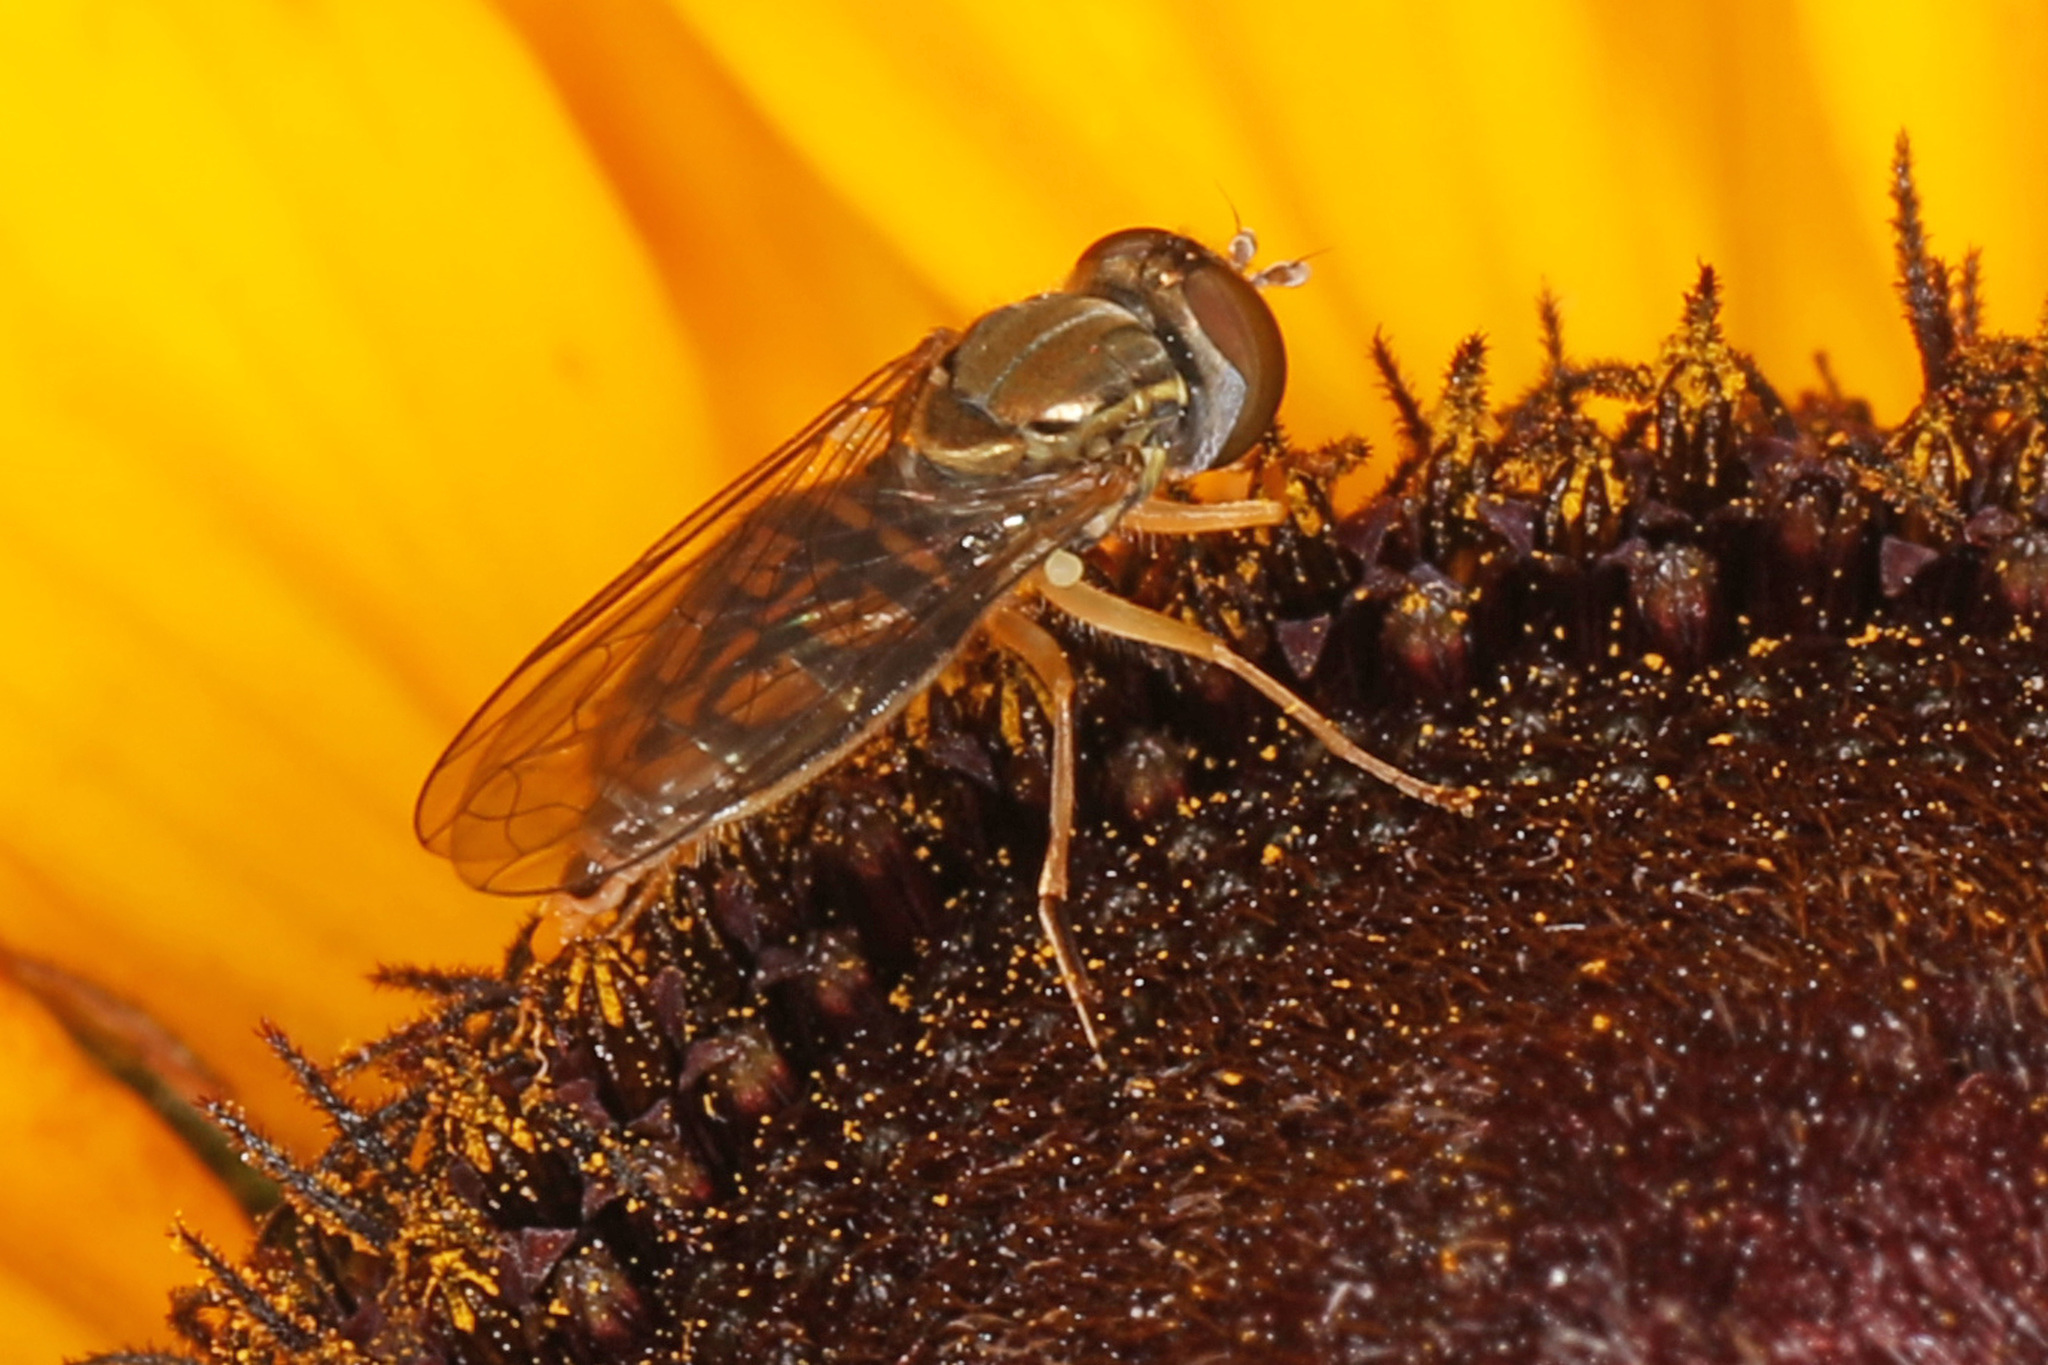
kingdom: Animalia
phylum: Arthropoda
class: Insecta
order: Diptera
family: Syrphidae
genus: Toxomerus
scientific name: Toxomerus marginatus
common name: Syrphid fly
